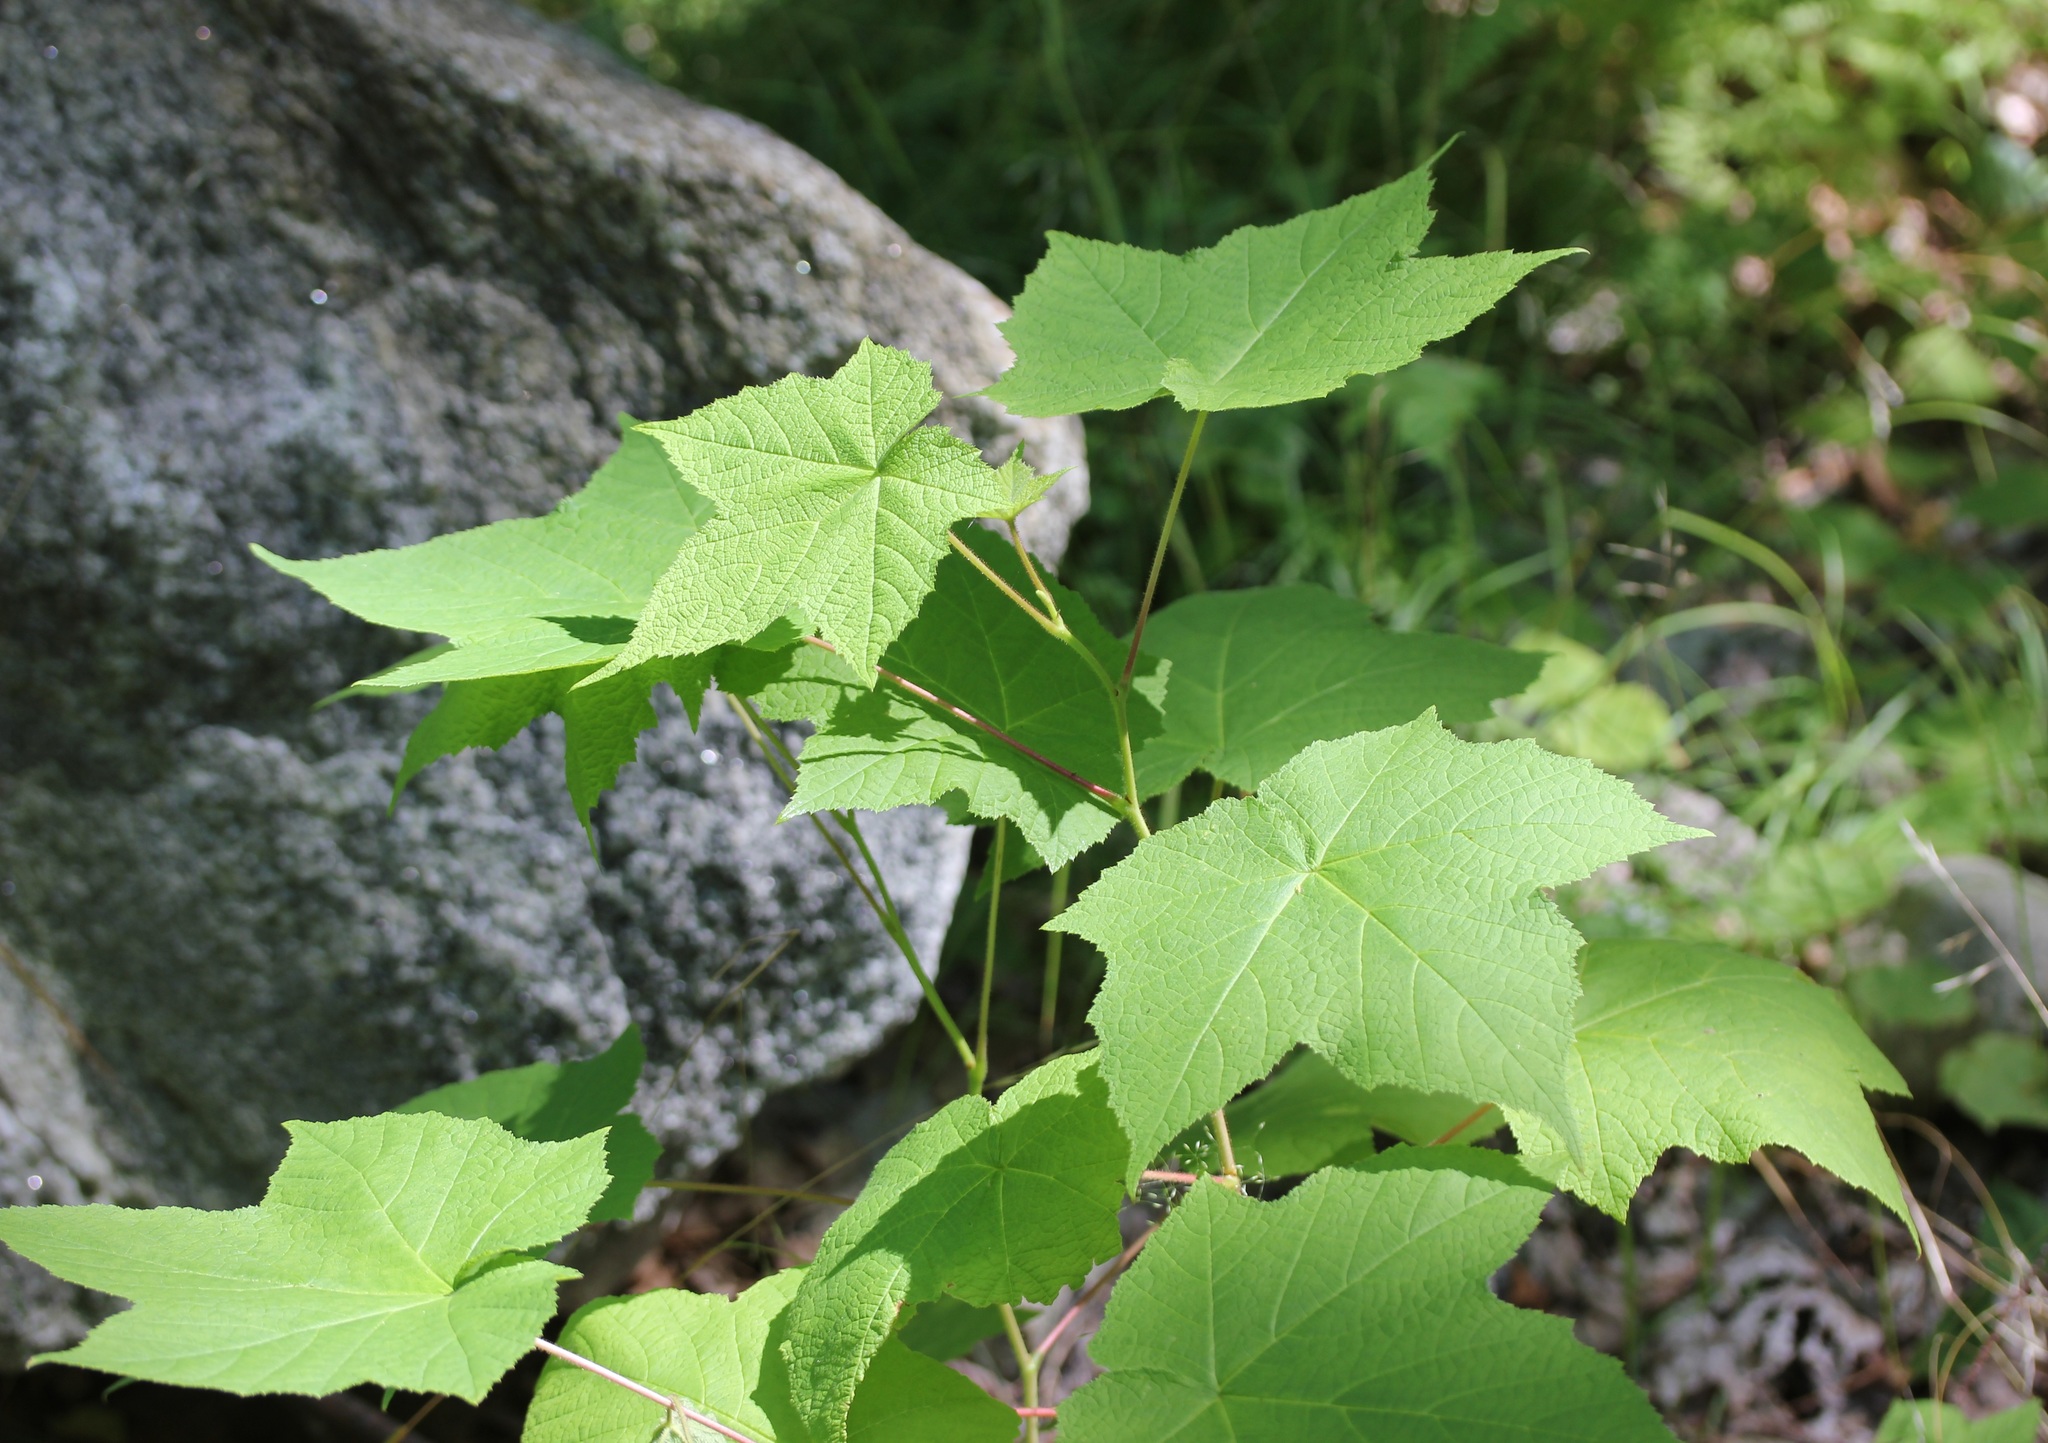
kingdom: Plantae
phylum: Tracheophyta
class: Magnoliopsida
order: Rosales
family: Rosaceae
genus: Rubus
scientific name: Rubus odoratus
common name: Purple-flowered raspberry
